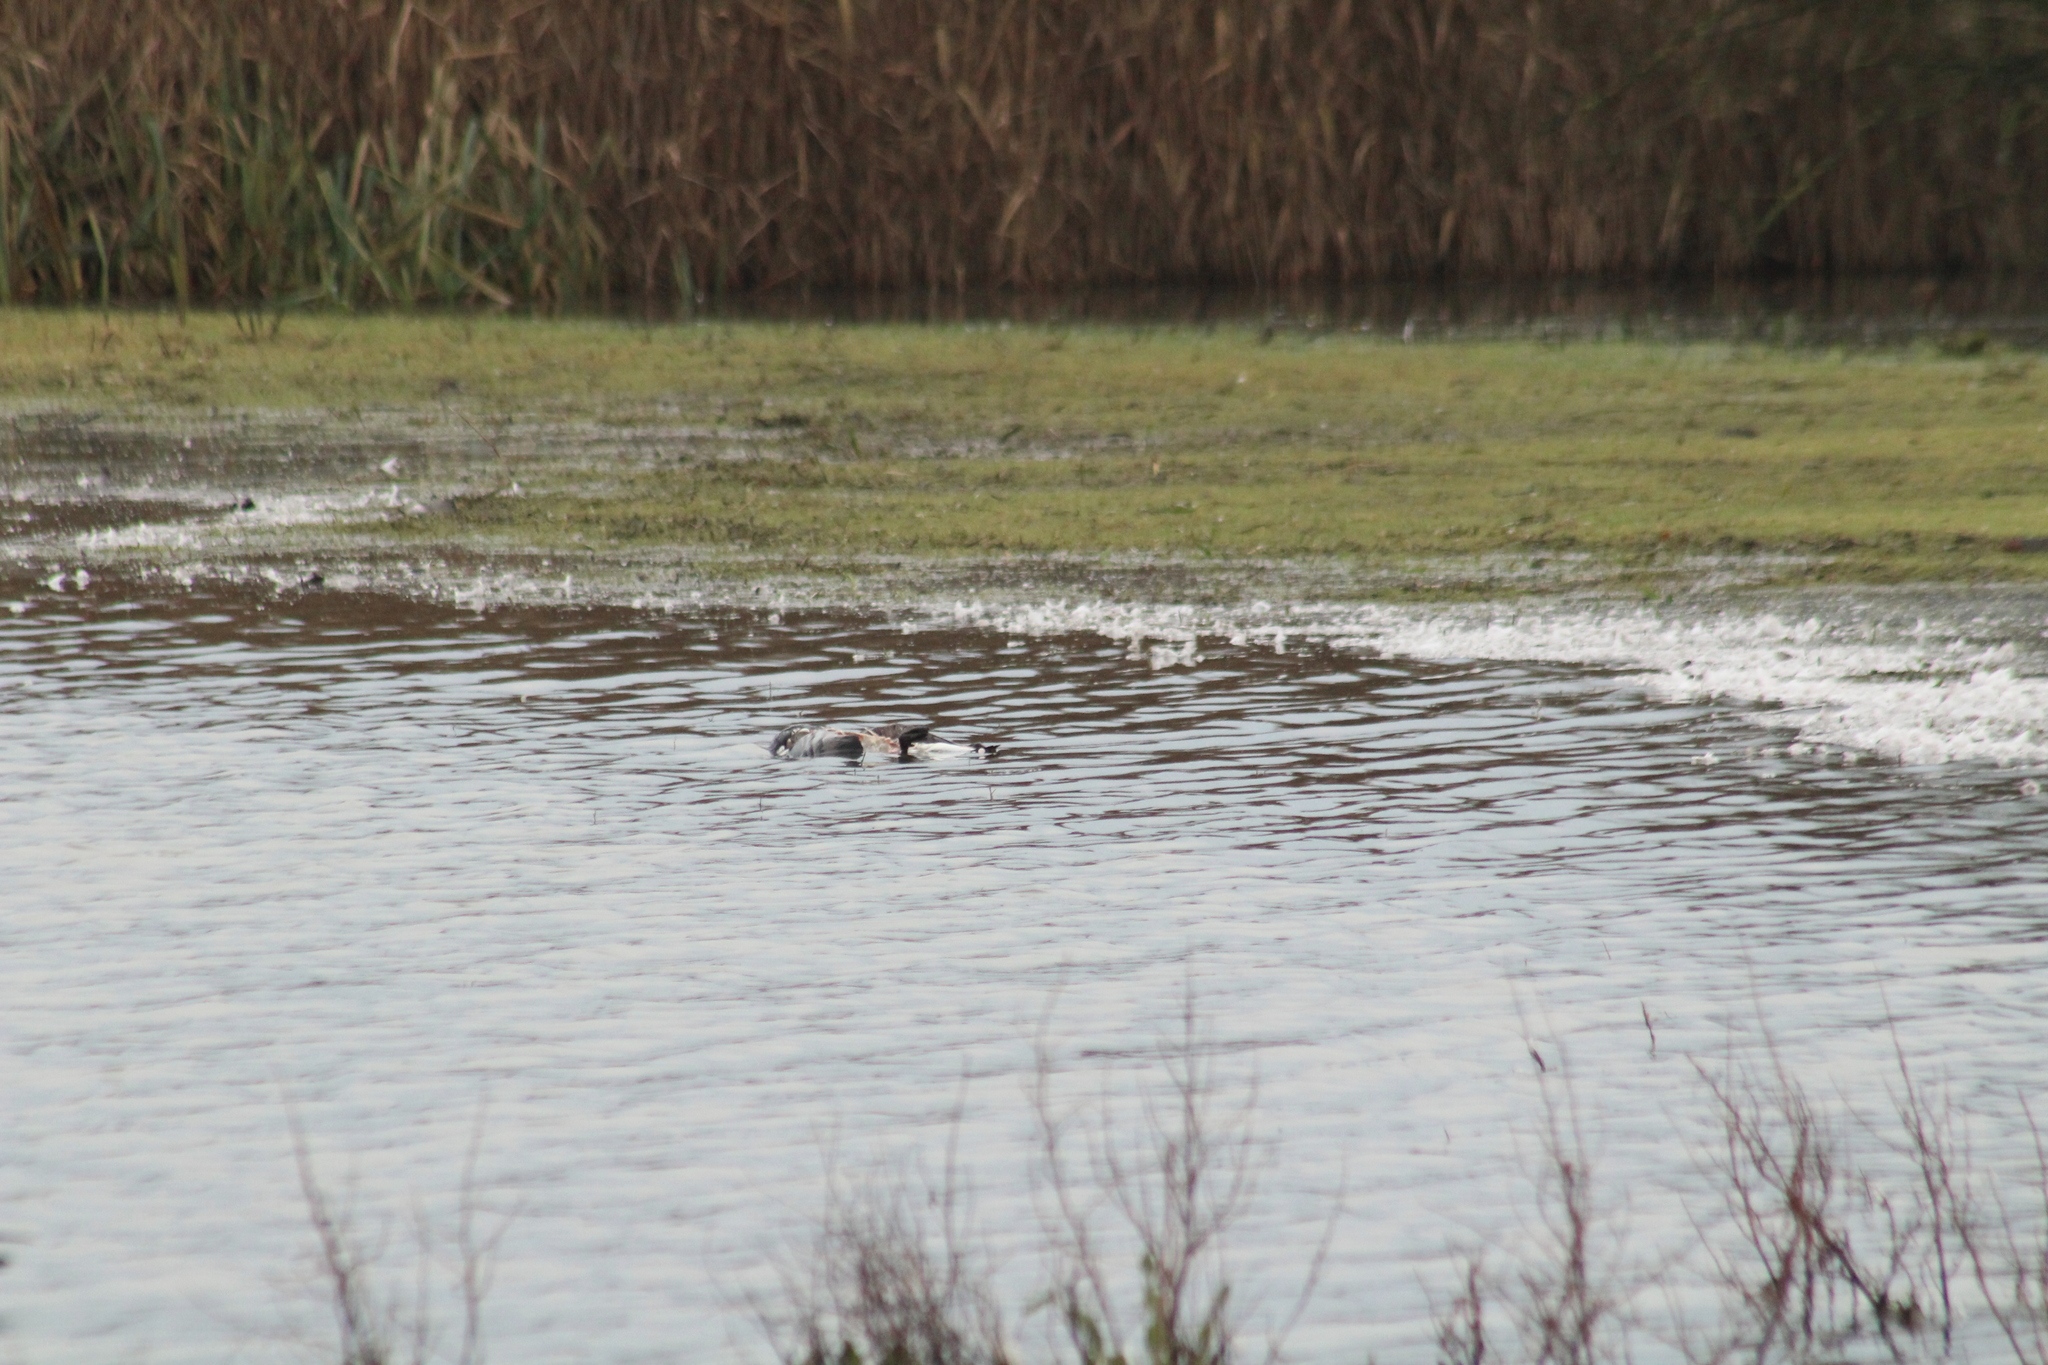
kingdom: Animalia
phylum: Chordata
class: Aves
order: Anseriformes
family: Anatidae
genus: Branta
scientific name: Branta leucopsis
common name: Barnacle goose
